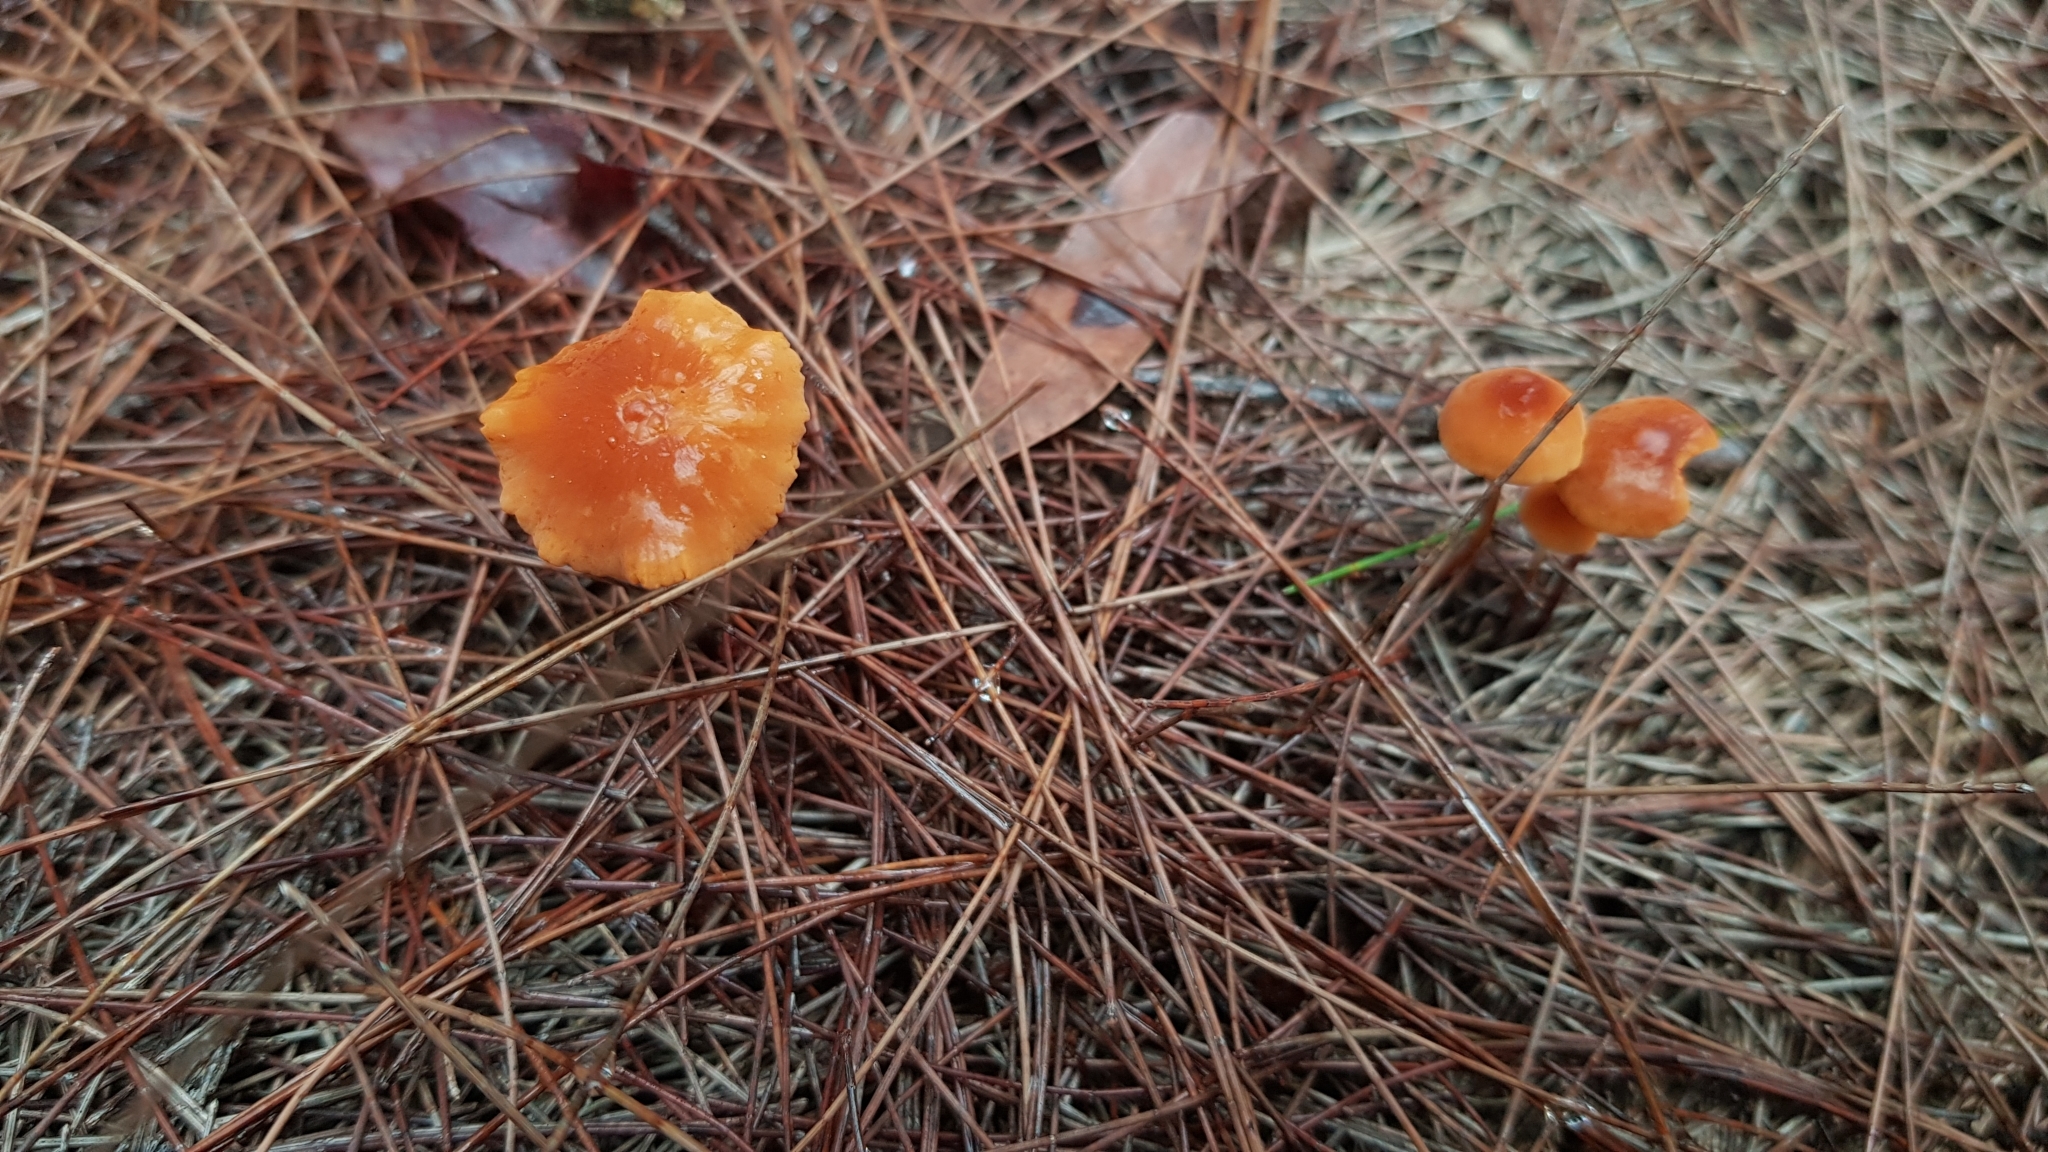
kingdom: Fungi
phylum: Basidiomycota
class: Agaricomycetes
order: Agaricales
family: Marasmiaceae
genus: Marasmius
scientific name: Marasmius elegans
